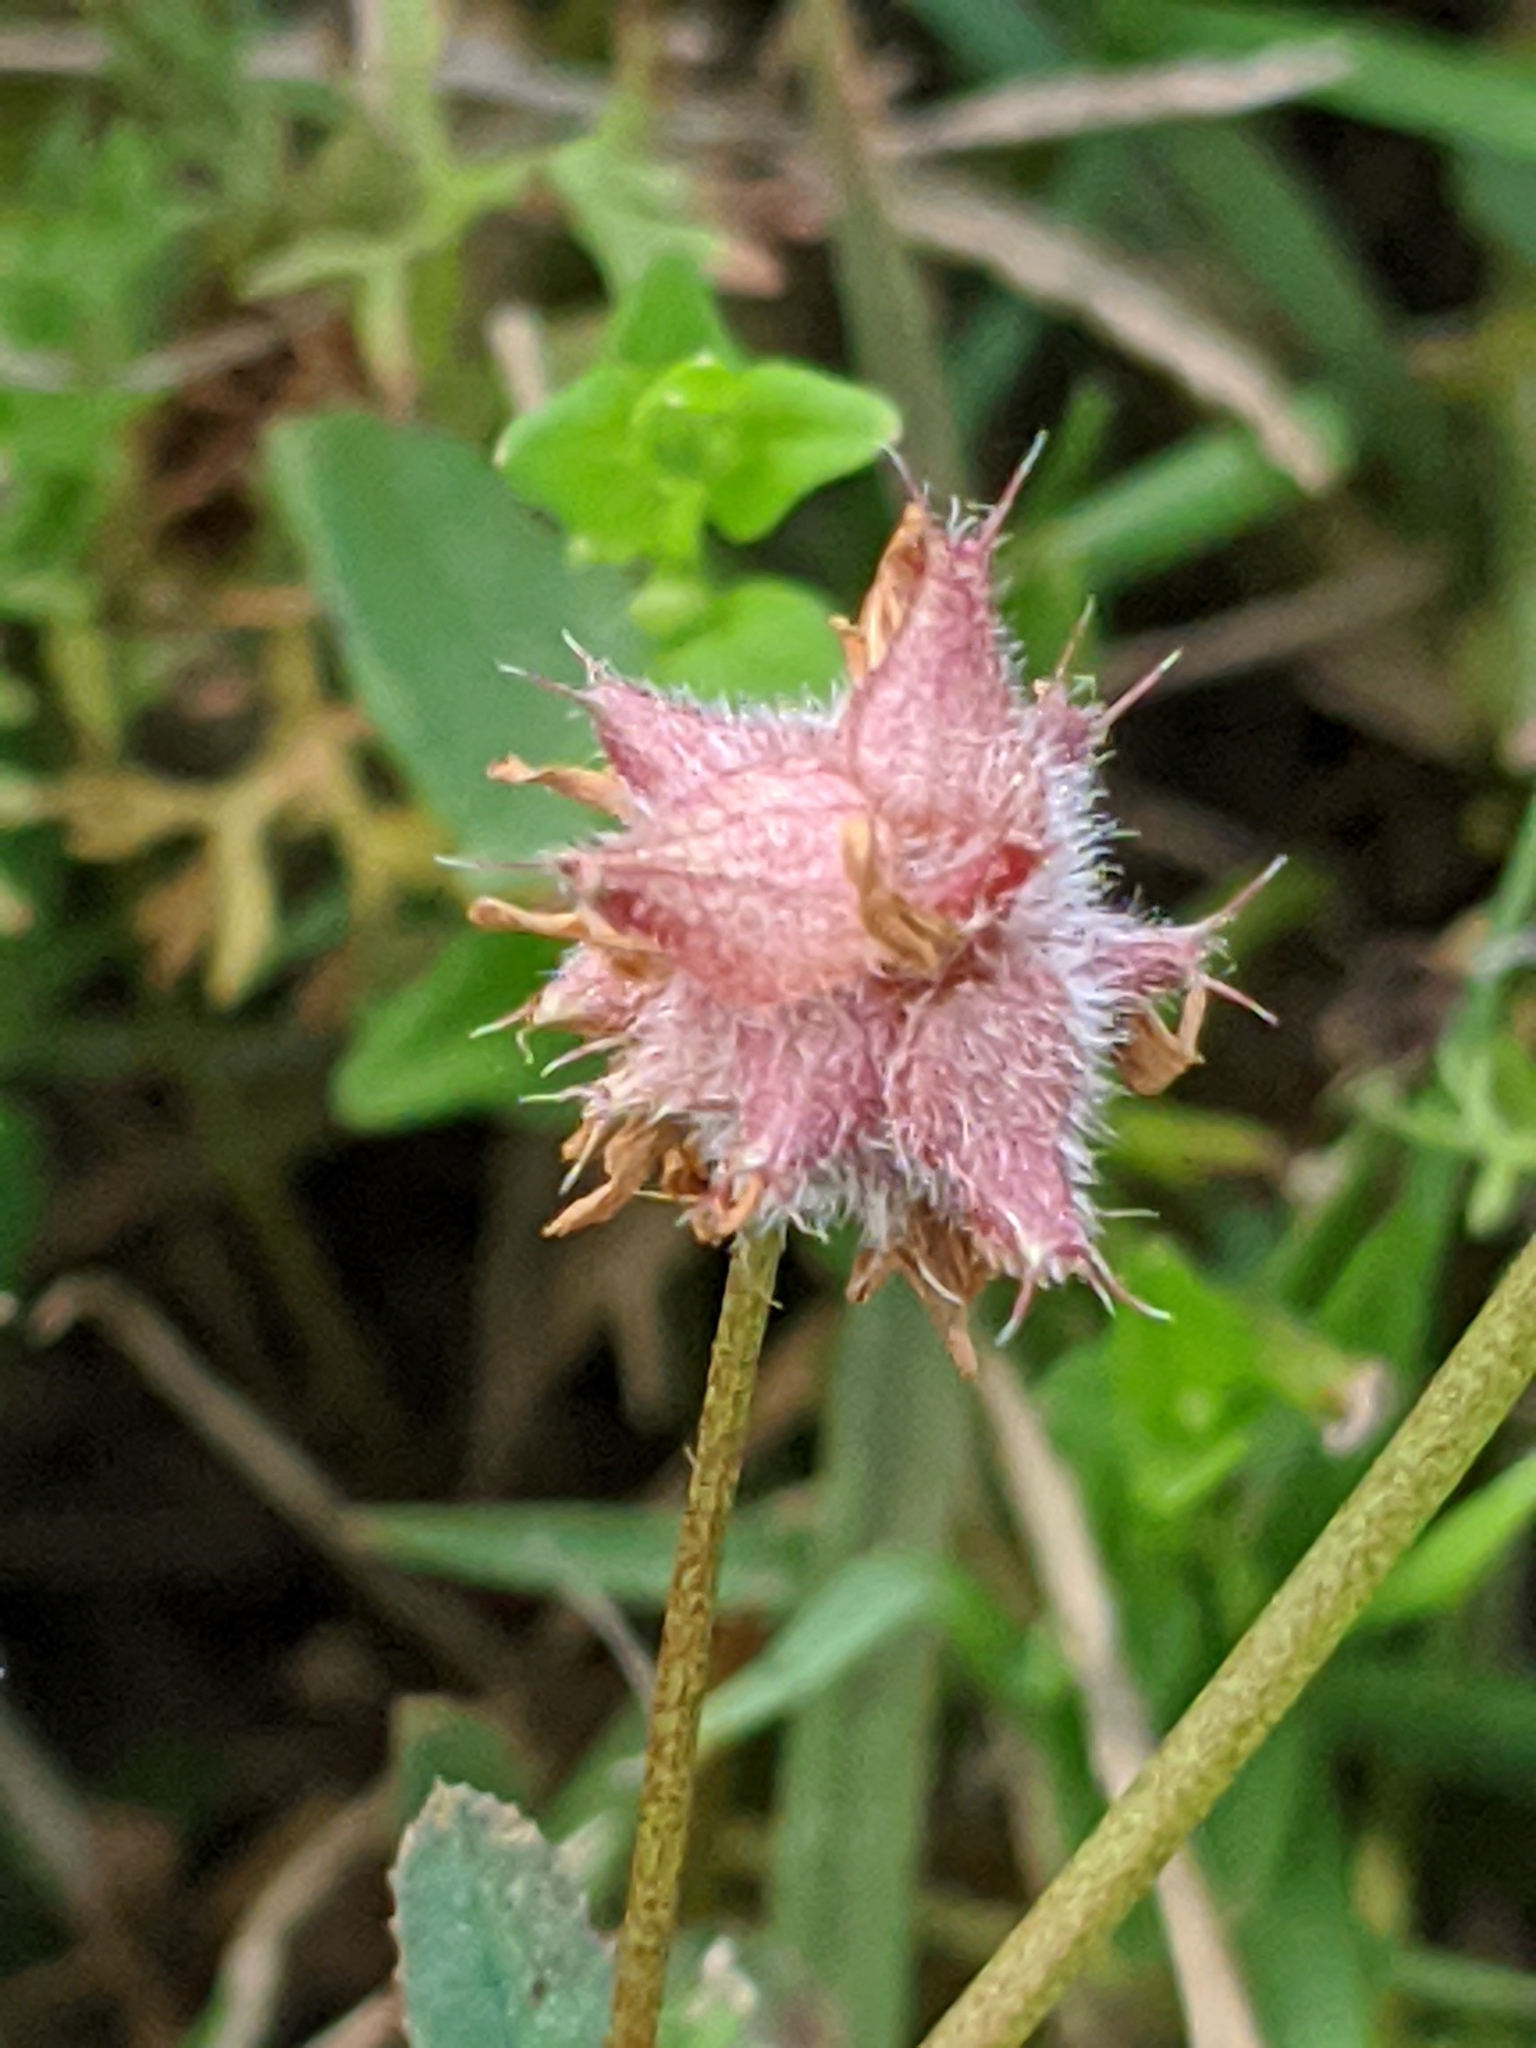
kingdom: Plantae
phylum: Tracheophyta
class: Magnoliopsida
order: Fabales
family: Fabaceae
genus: Trifolium
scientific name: Trifolium resupinatum
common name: Reversed clover
